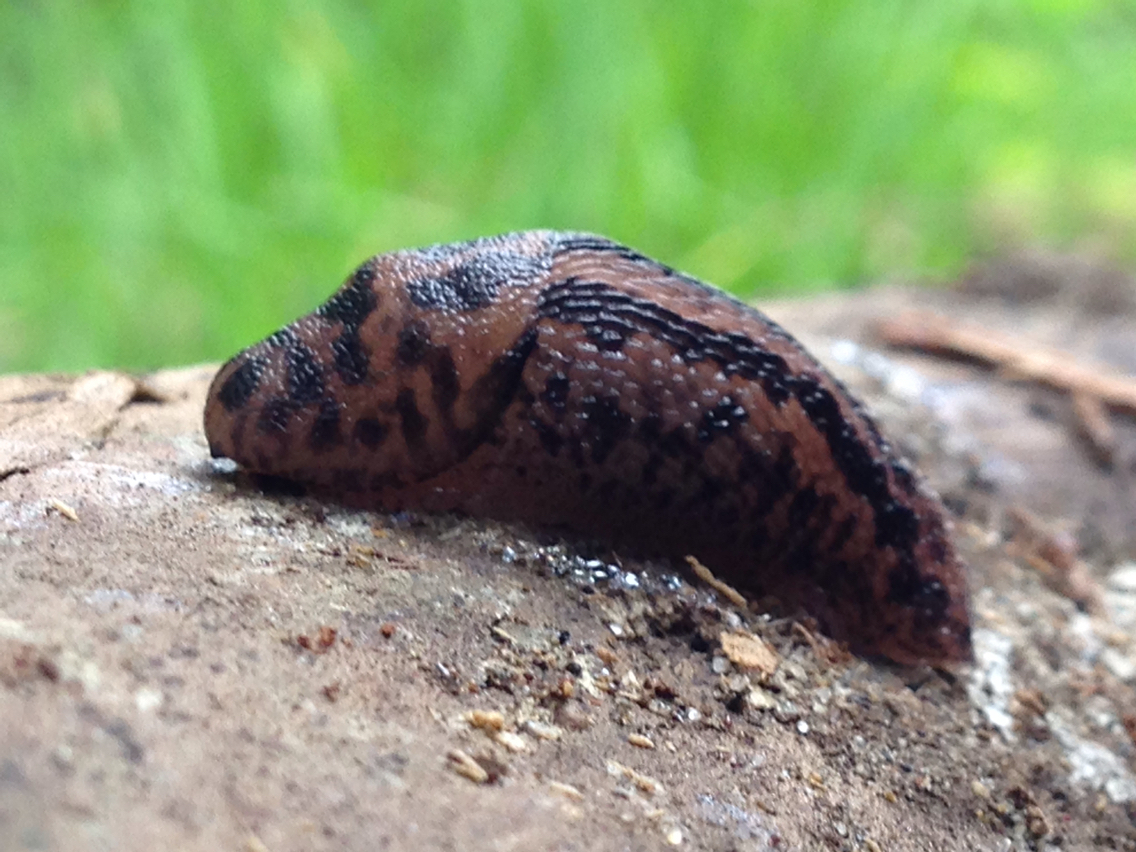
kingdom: Animalia
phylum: Mollusca
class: Gastropoda
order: Stylommatophora
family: Limacidae
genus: Limax
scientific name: Limax maximus
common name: Great grey slug
